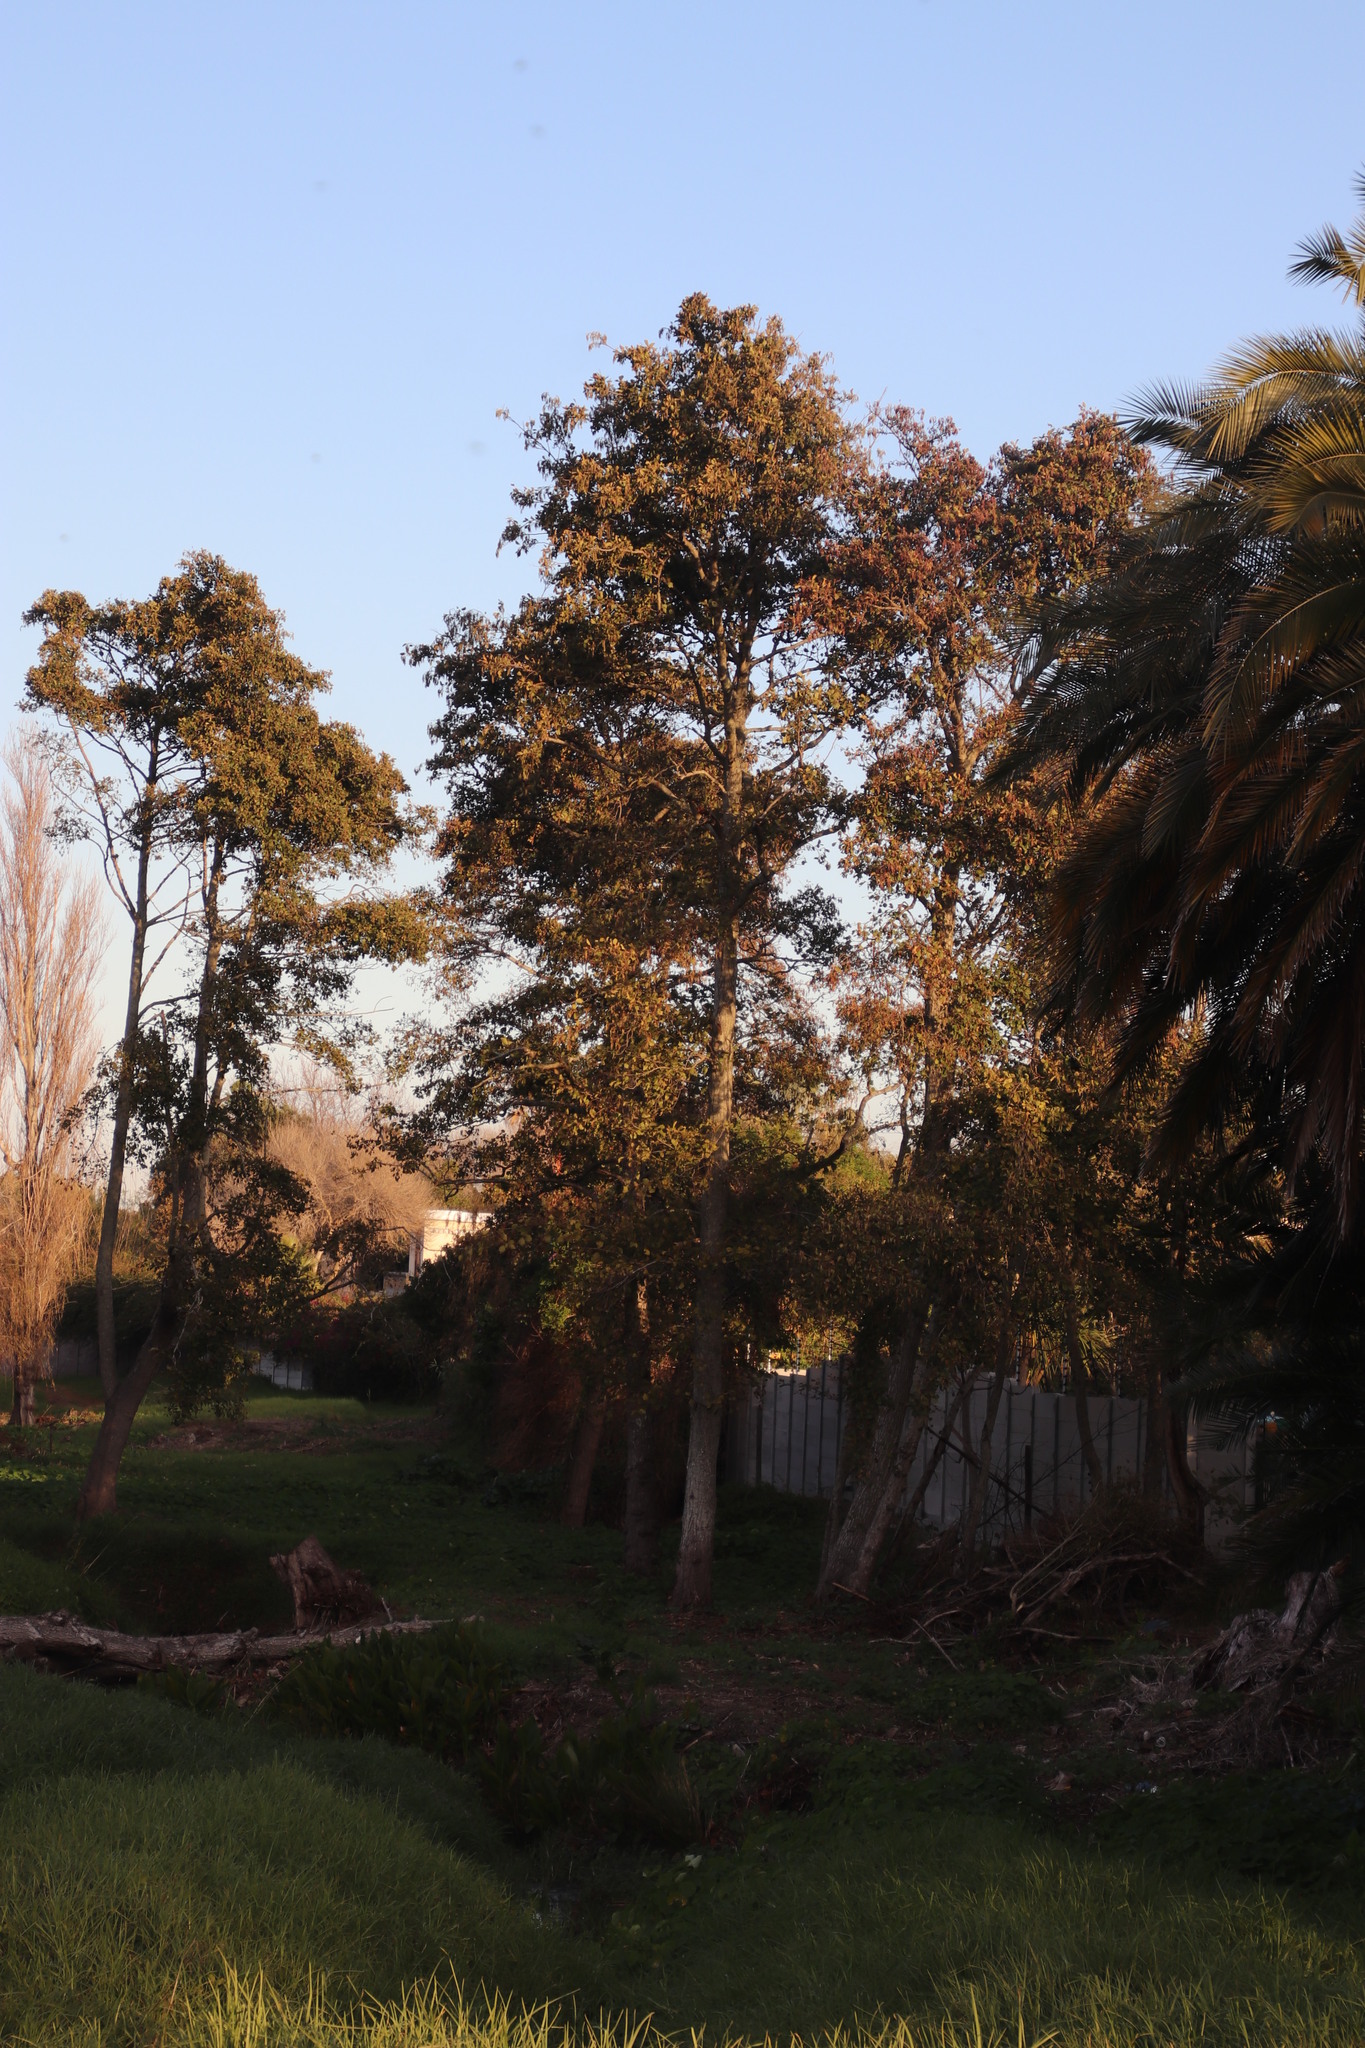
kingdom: Plantae
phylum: Tracheophyta
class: Magnoliopsida
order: Fabales
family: Fabaceae
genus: Acacia
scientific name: Acacia melanoxylon
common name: Blackwood
